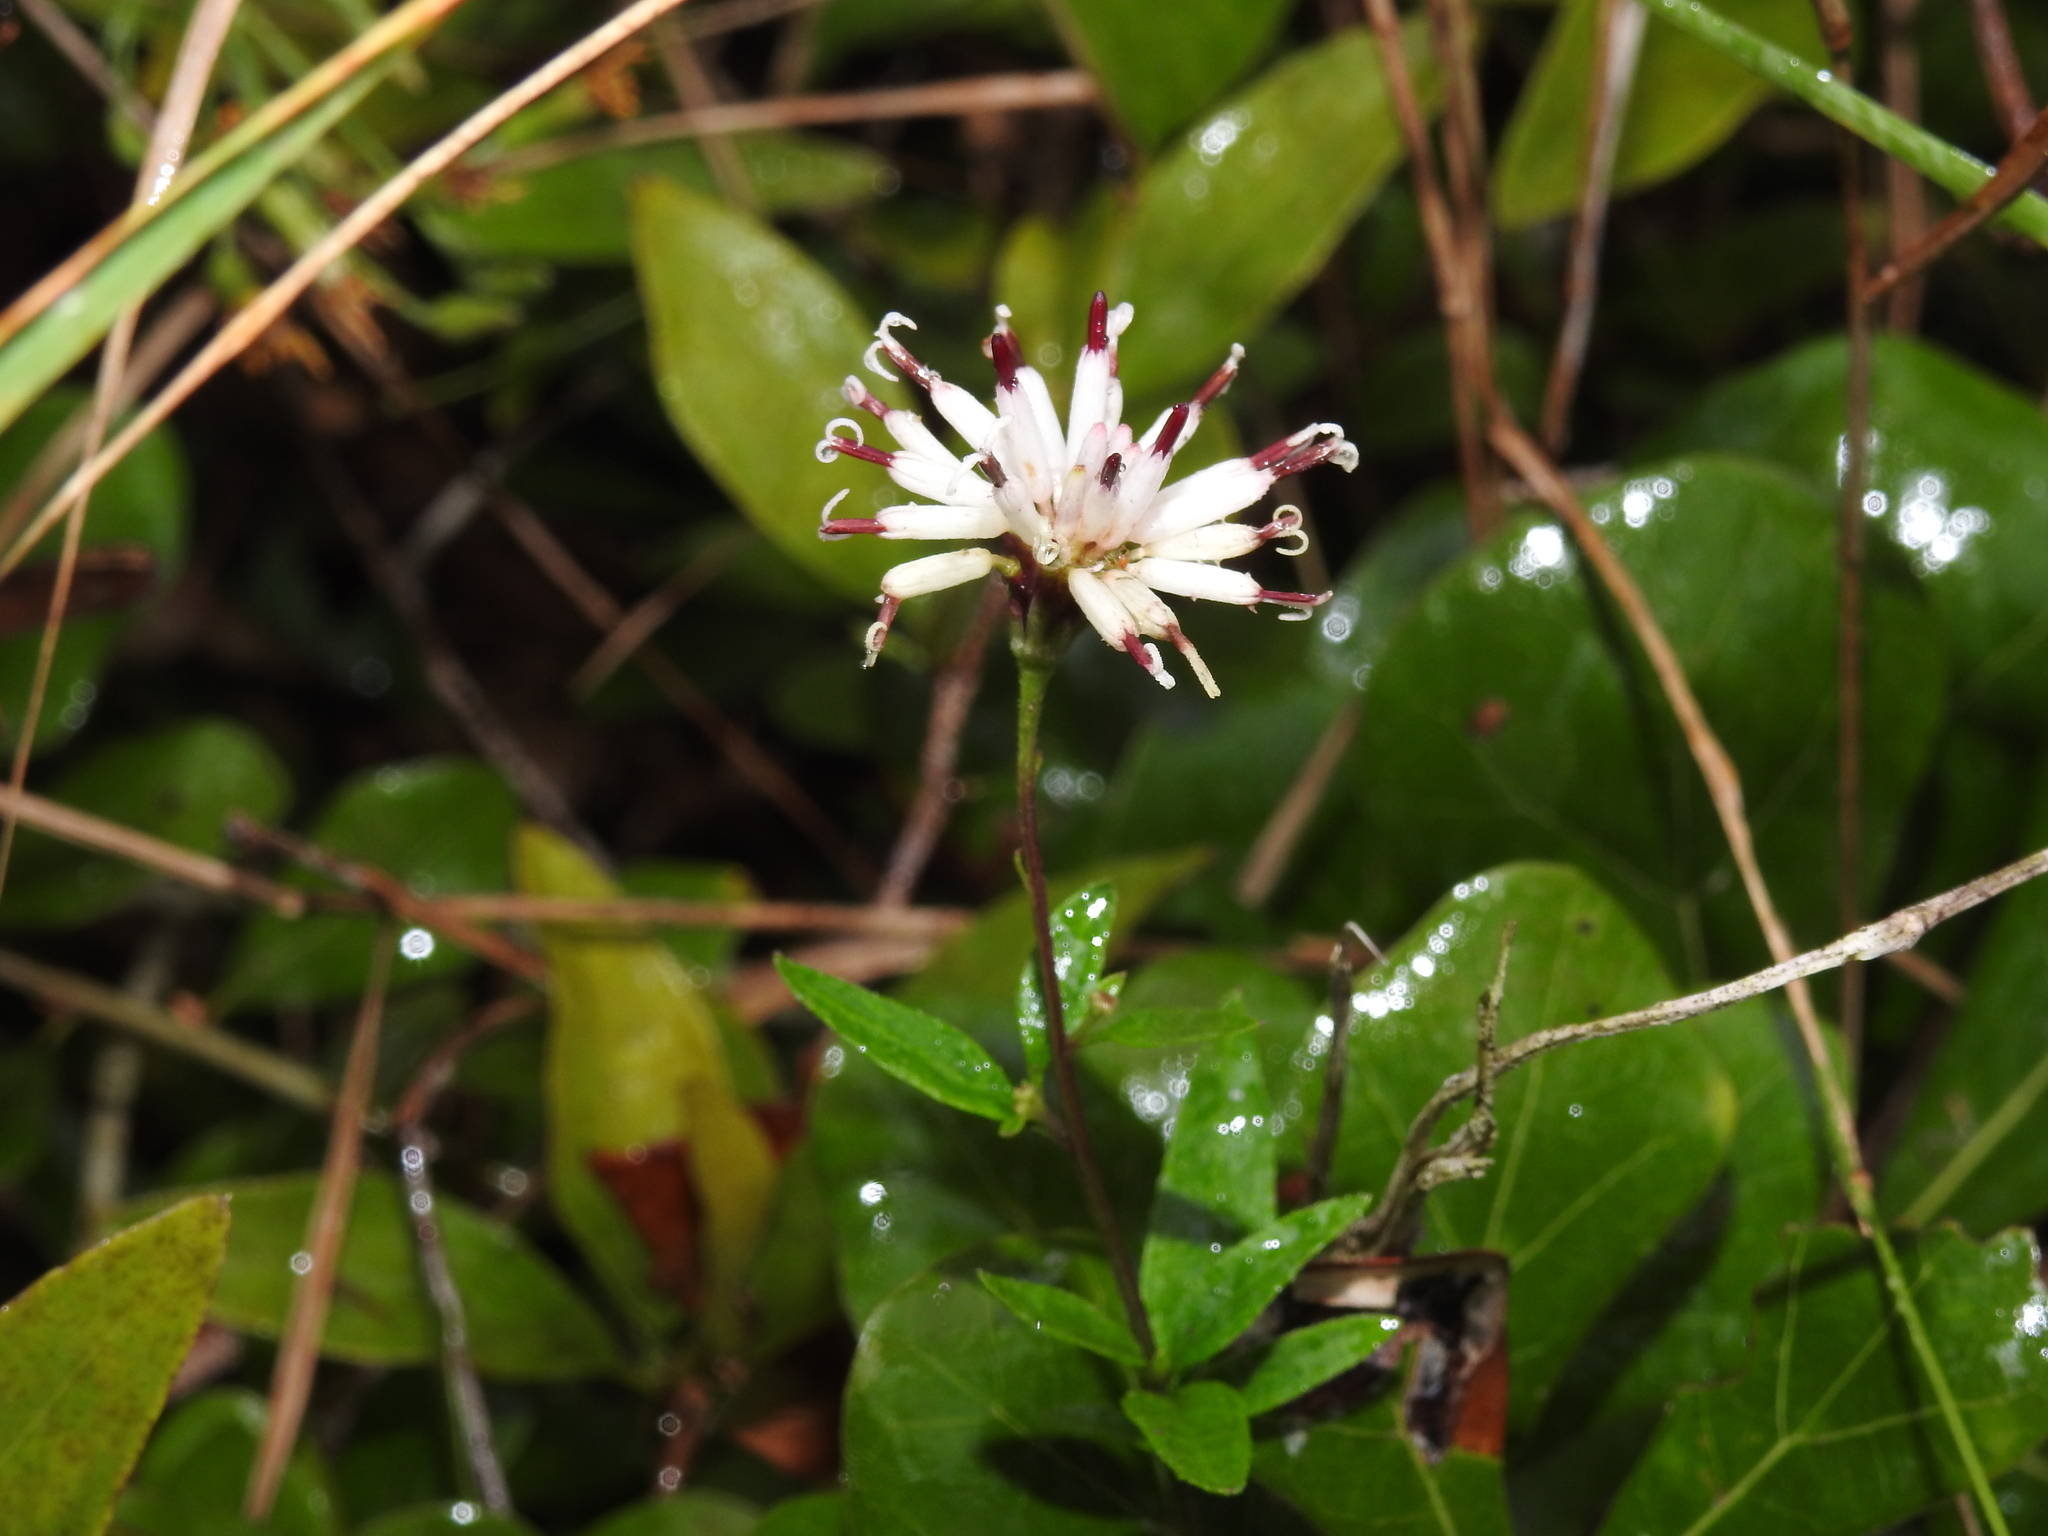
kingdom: Plantae
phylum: Tracheophyta
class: Magnoliopsida
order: Asterales
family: Asteraceae
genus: Palafoxia
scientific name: Palafoxia feayi
